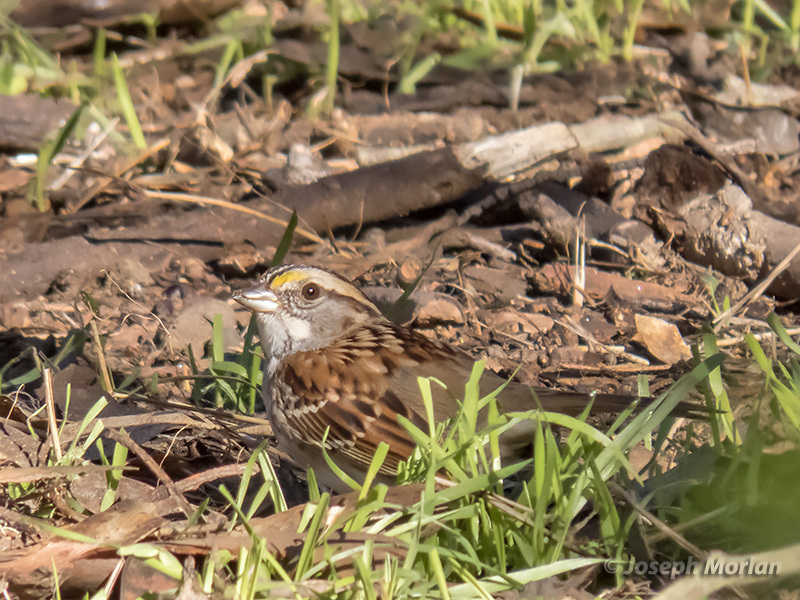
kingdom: Animalia
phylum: Chordata
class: Aves
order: Passeriformes
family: Passerellidae
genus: Zonotrichia
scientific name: Zonotrichia albicollis
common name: White-throated sparrow
